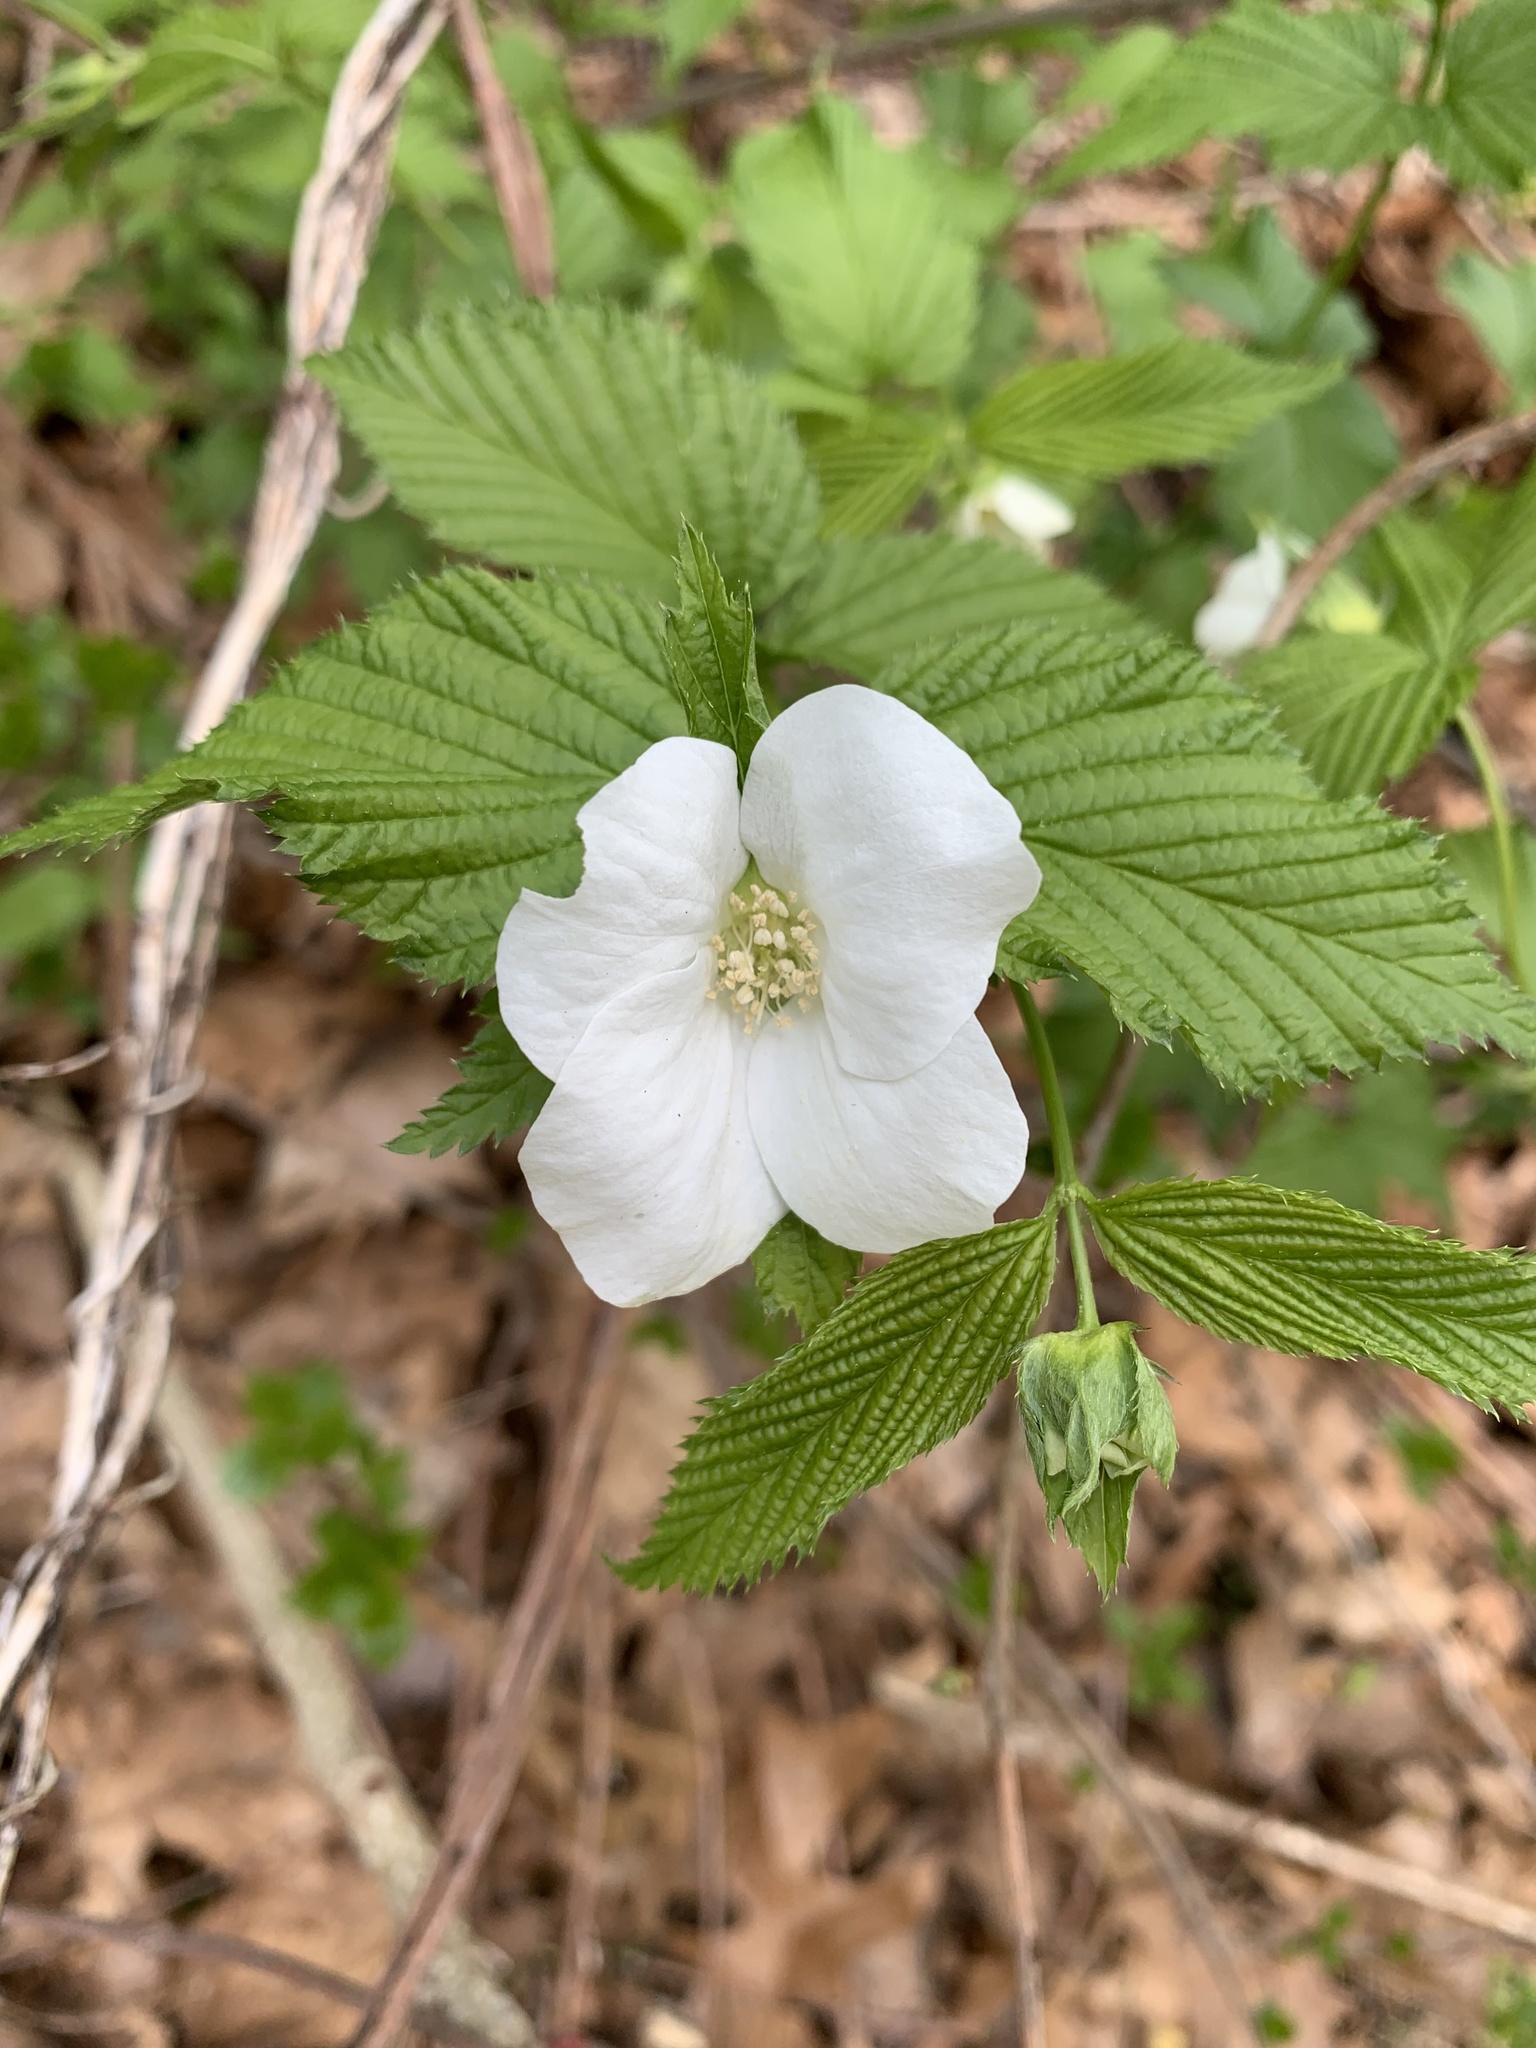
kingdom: Plantae
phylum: Tracheophyta
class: Magnoliopsida
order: Rosales
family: Rosaceae
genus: Rhodotypos
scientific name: Rhodotypos scandens
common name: Jetbead
